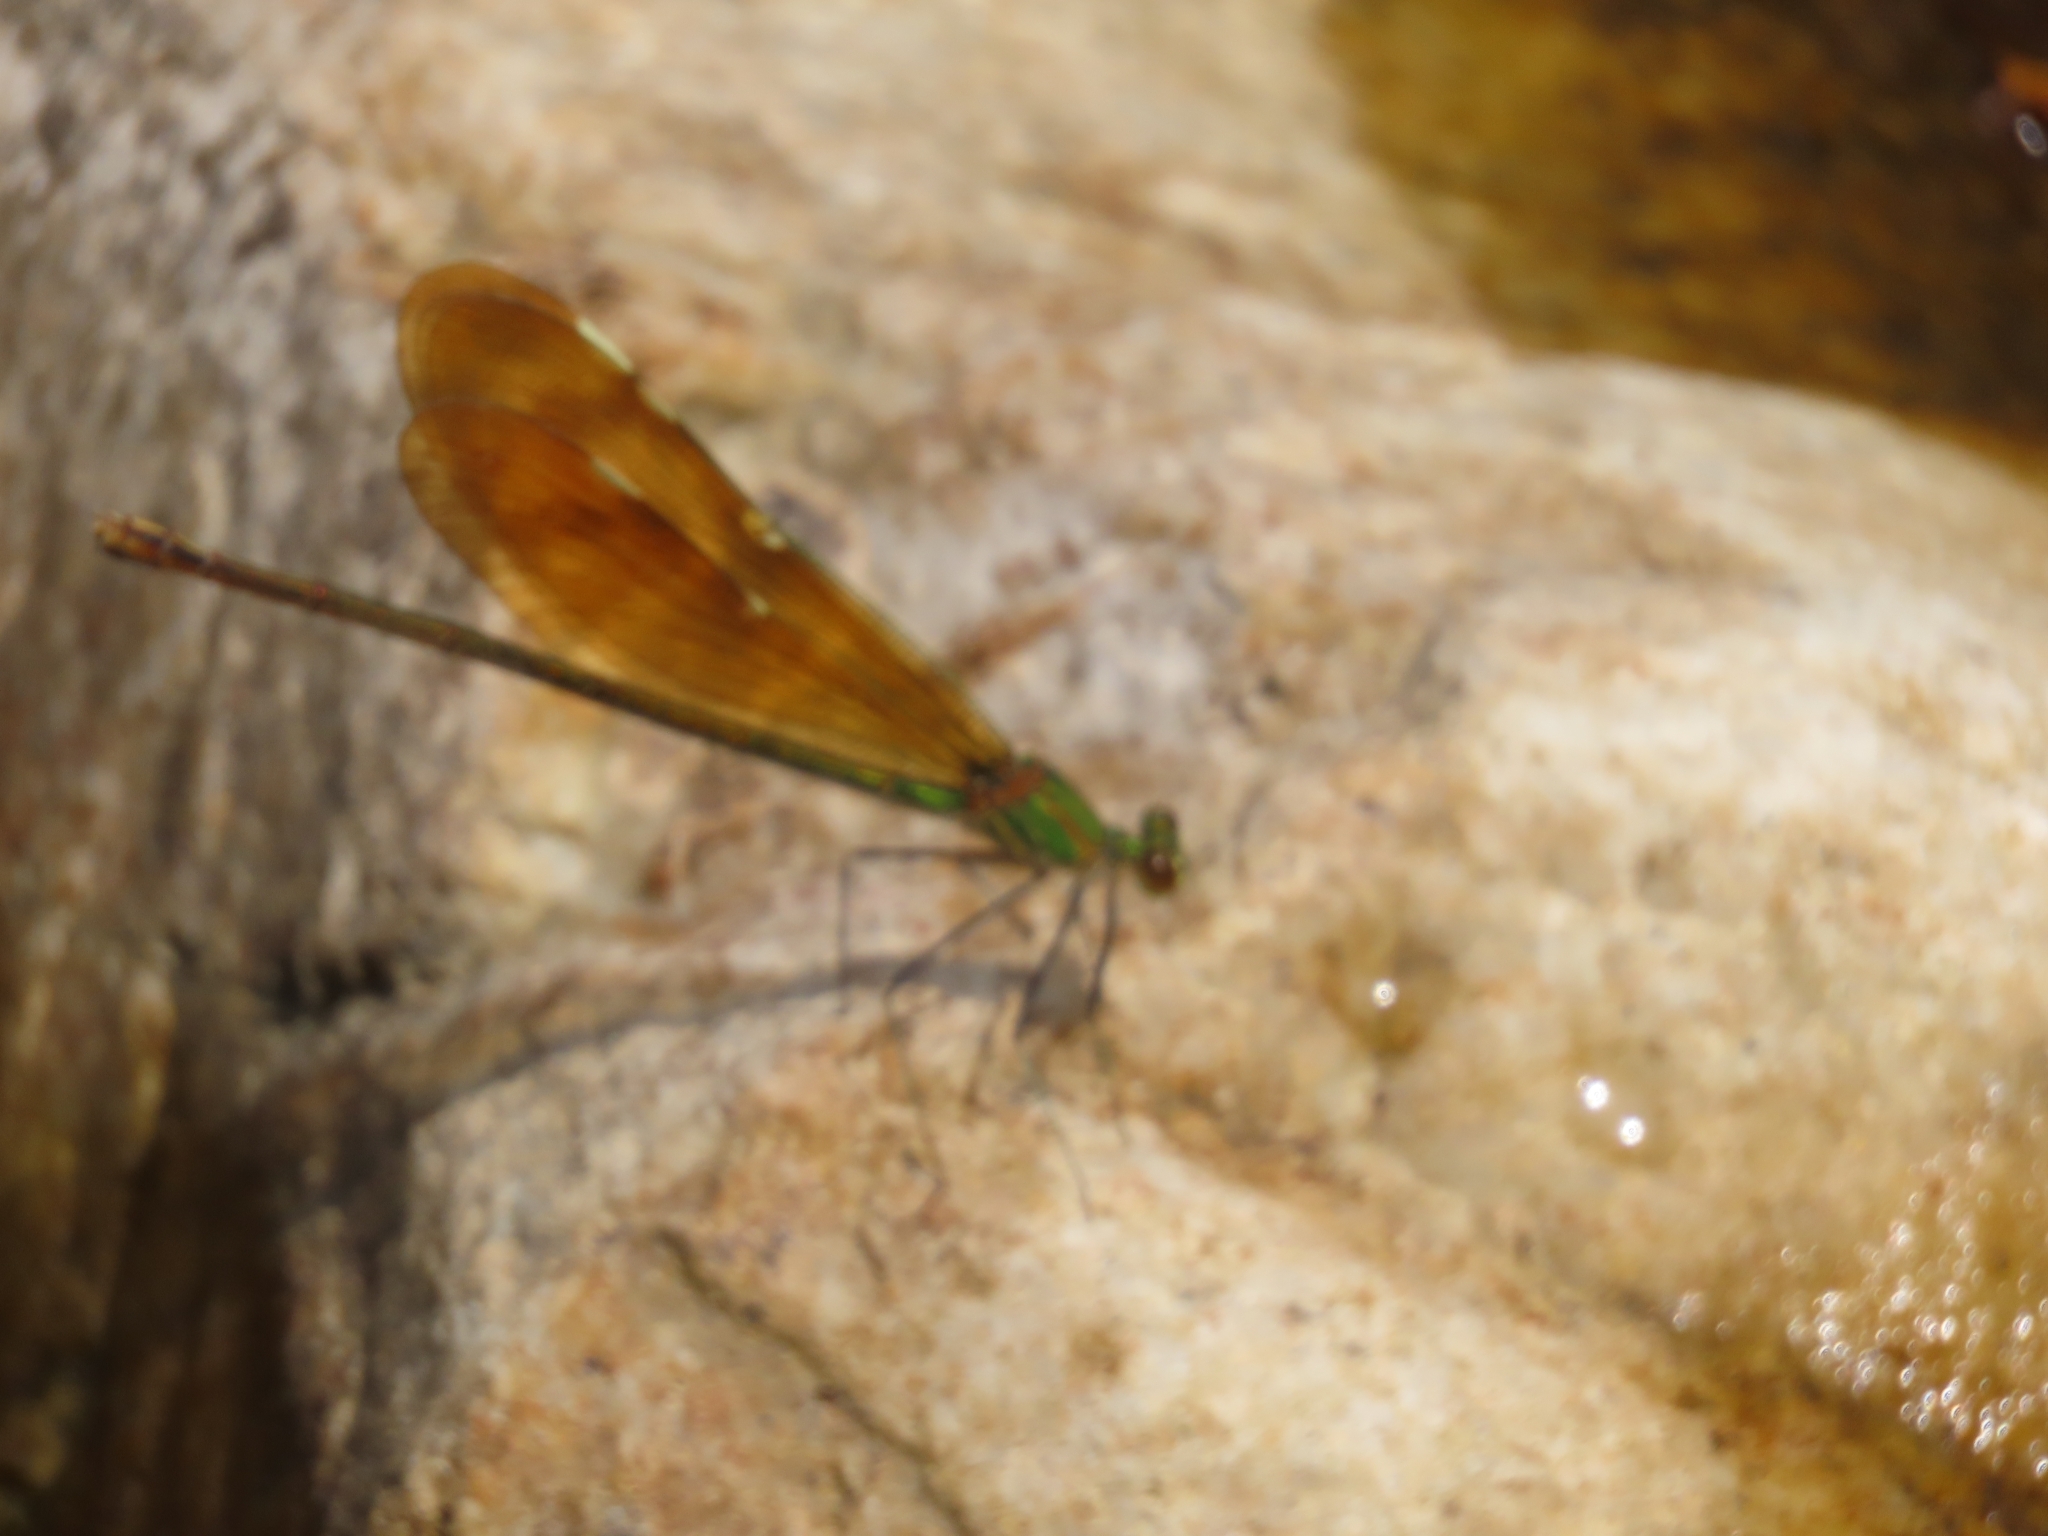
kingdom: Animalia
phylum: Arthropoda
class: Insecta
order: Odonata
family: Calopterygidae
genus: Neurobasis
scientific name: Neurobasis chinensis
